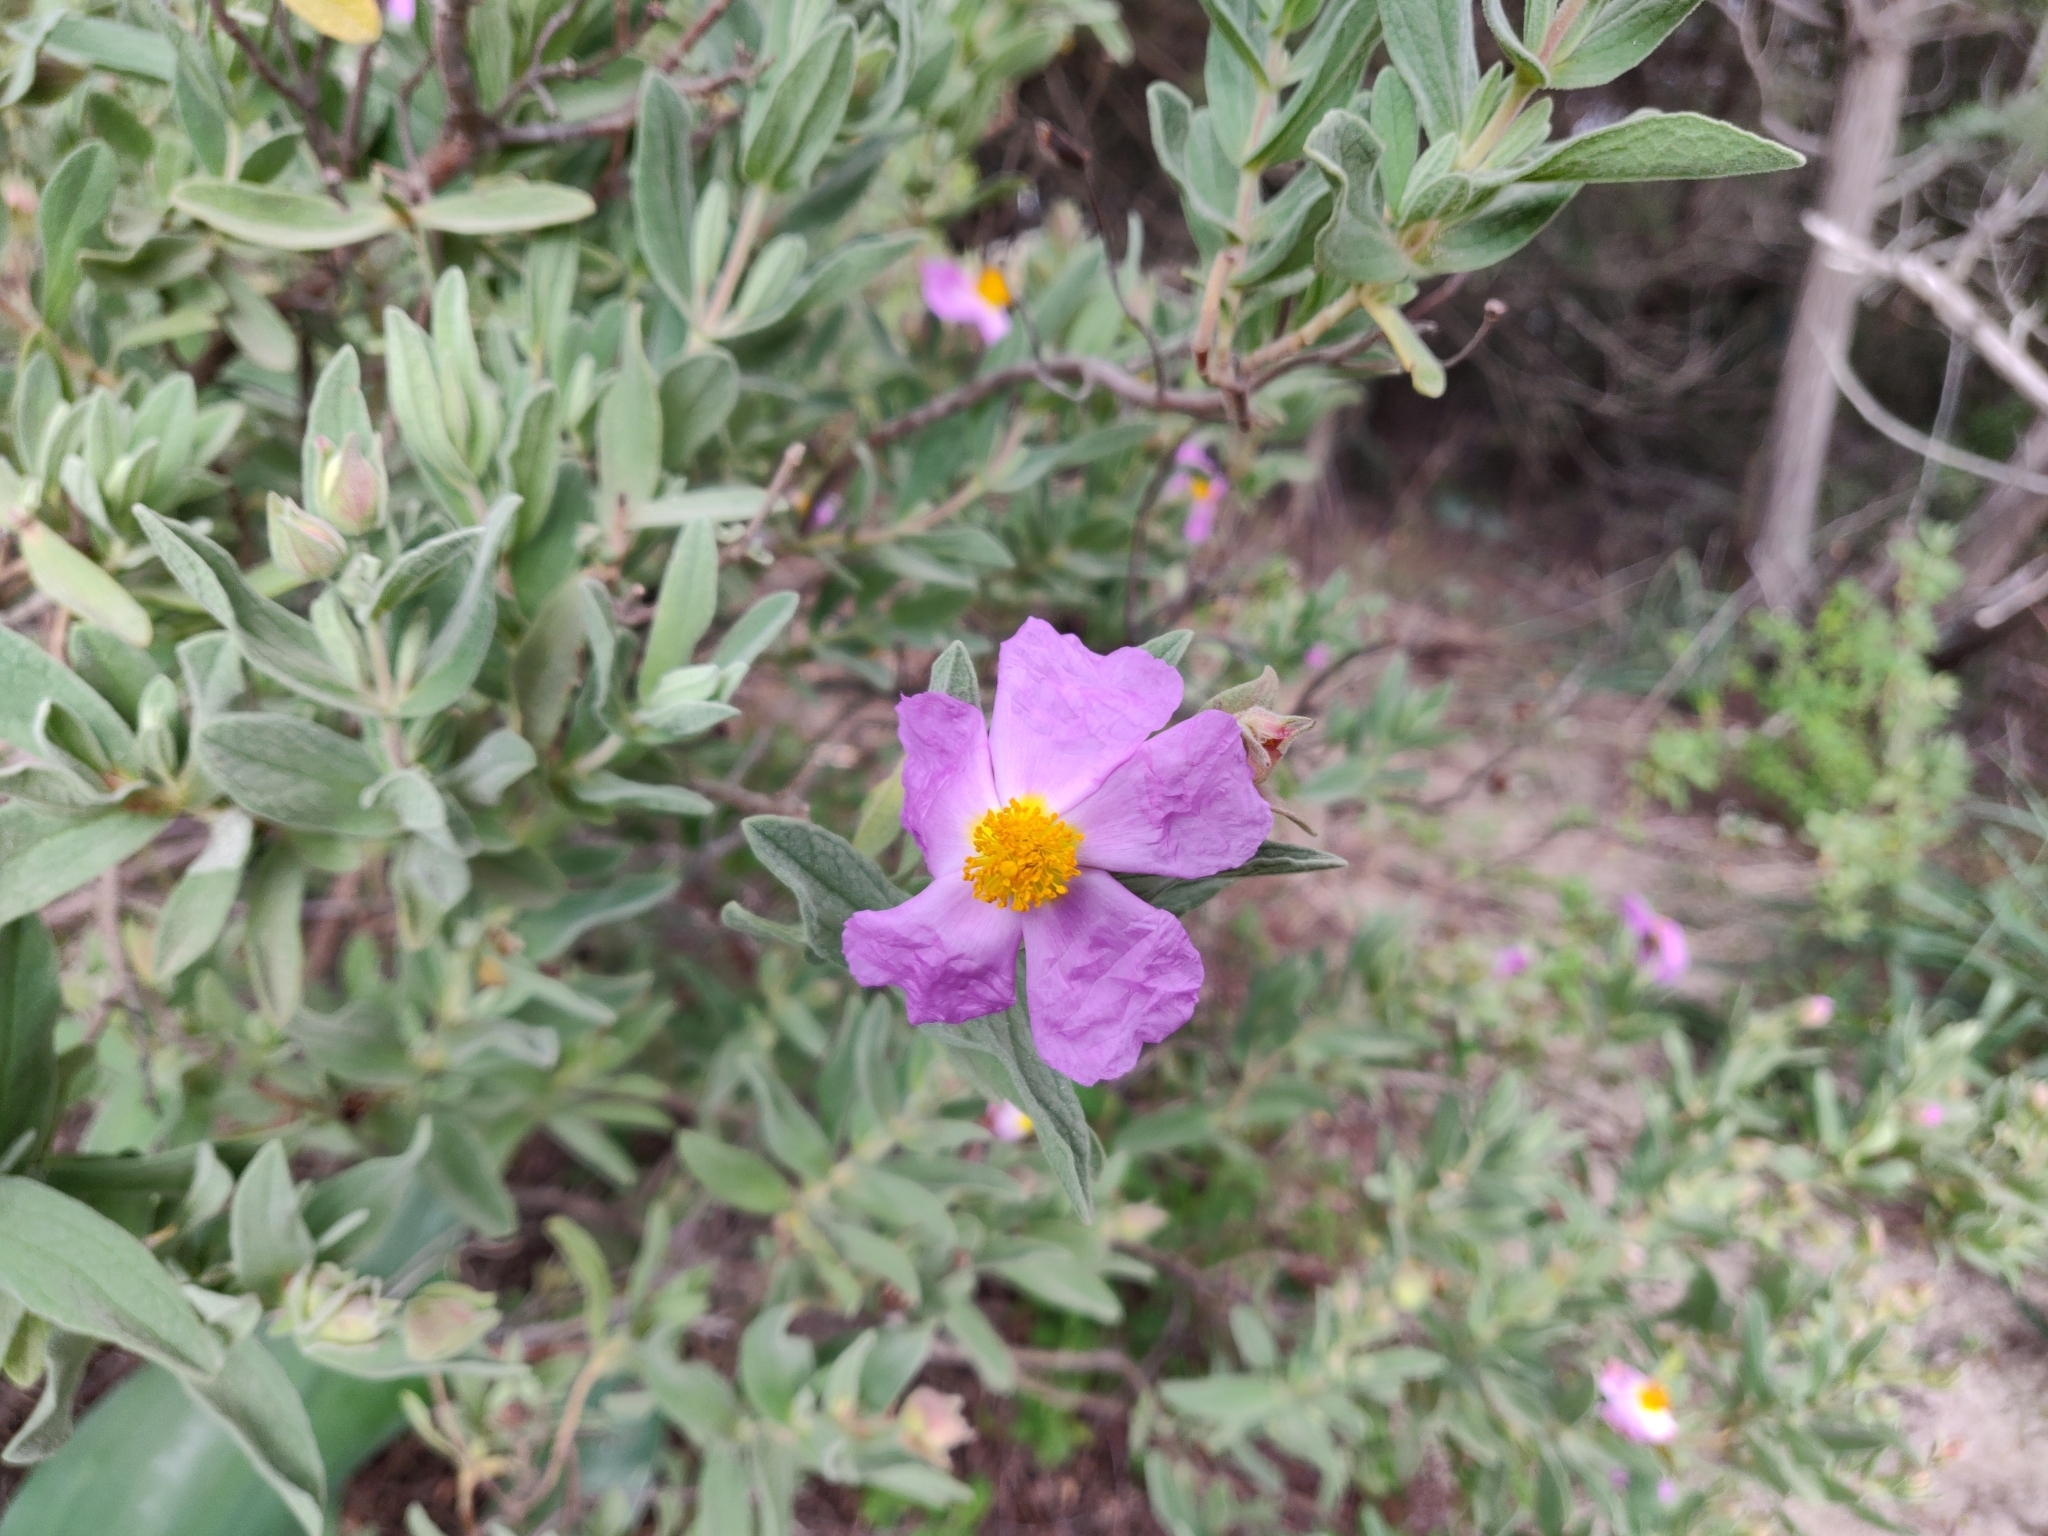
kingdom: Plantae
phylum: Tracheophyta
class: Magnoliopsida
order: Malvales
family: Cistaceae
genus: Cistus
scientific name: Cistus albidus
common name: White-leaf rock-rose
